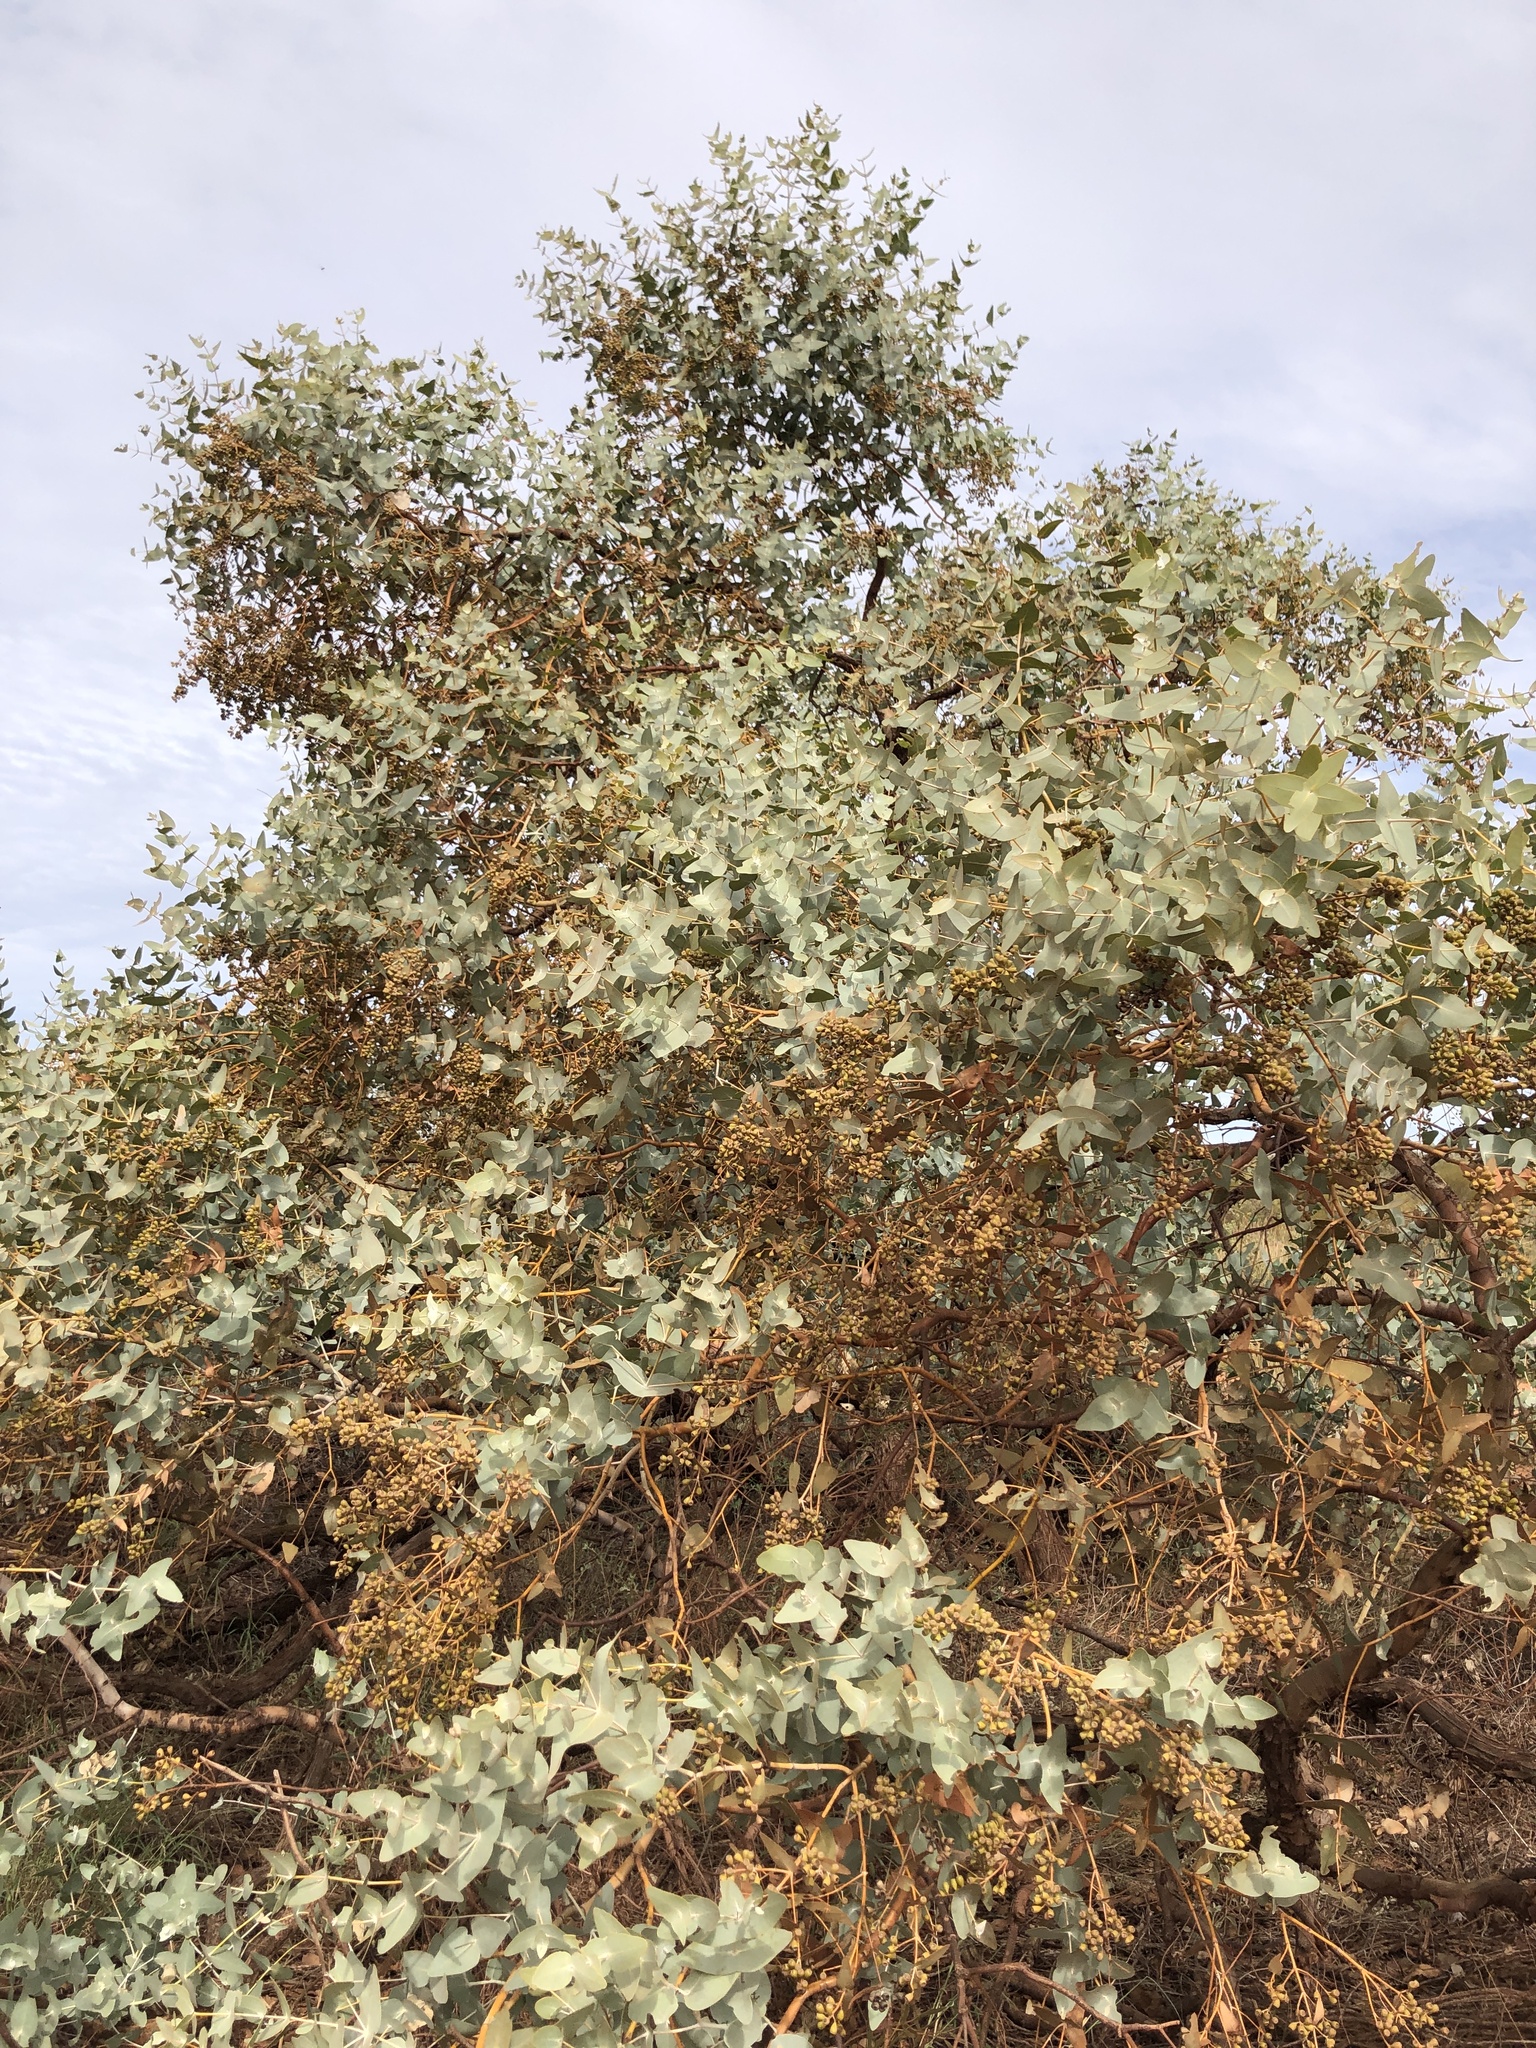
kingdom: Plantae
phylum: Tracheophyta
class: Magnoliopsida
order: Myrtales
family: Myrtaceae
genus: Eucalyptus
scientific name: Eucalyptus gamophylla
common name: Blue mallee
